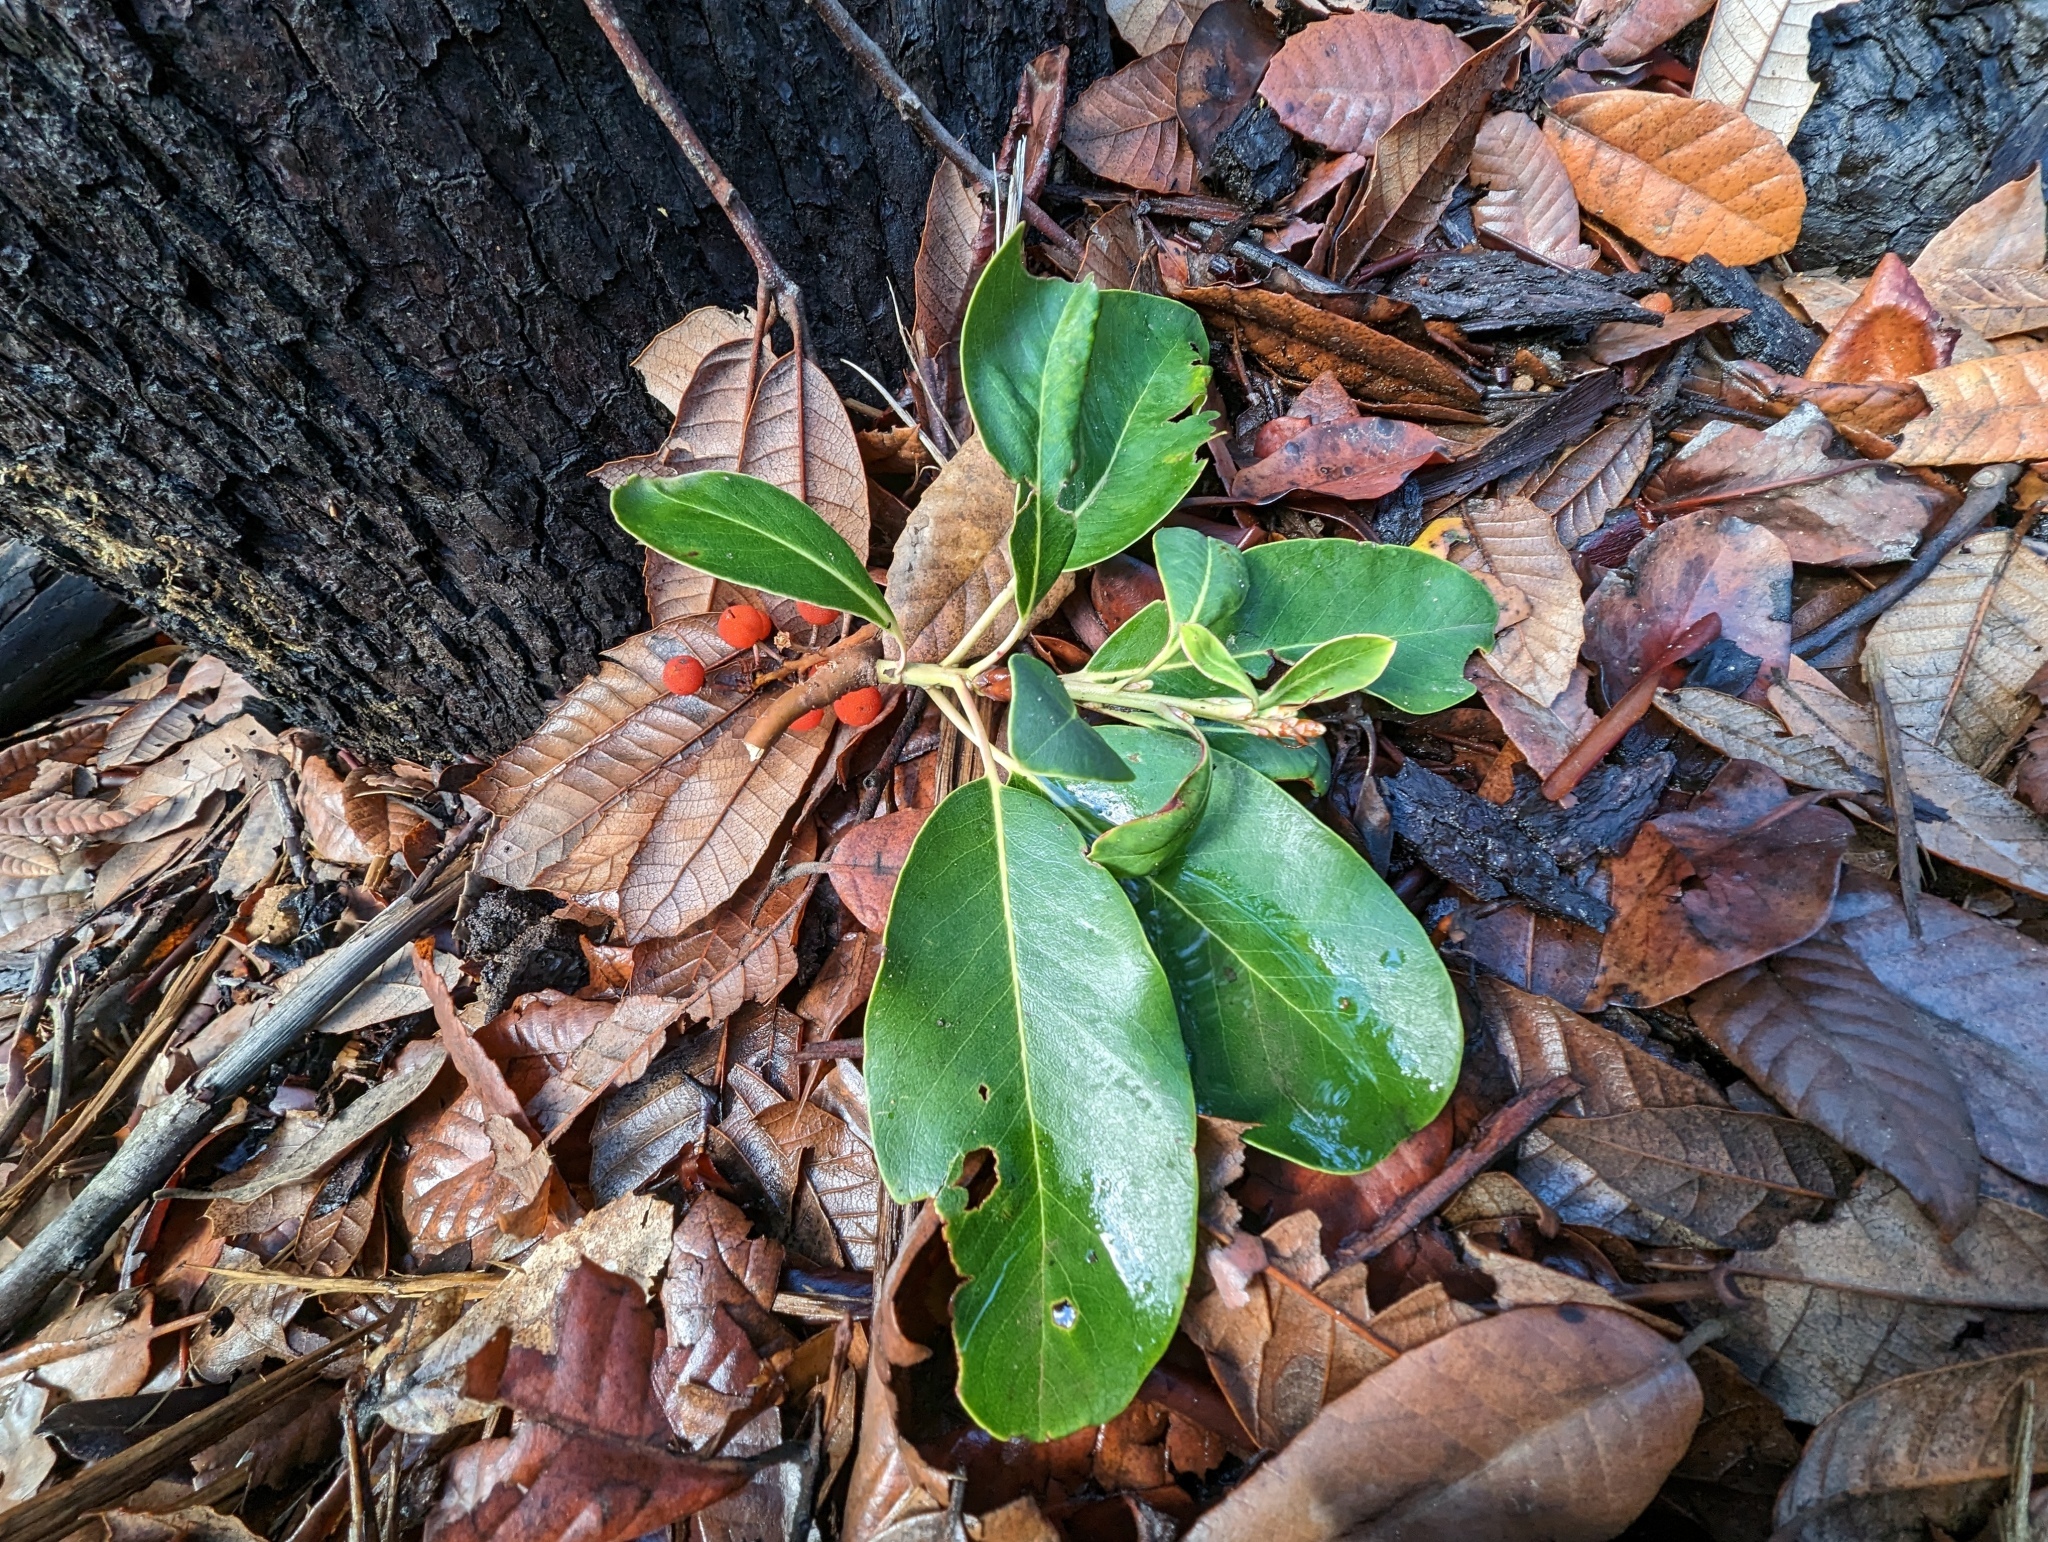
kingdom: Plantae
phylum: Tracheophyta
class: Magnoliopsida
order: Ericales
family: Ericaceae
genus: Arbutus
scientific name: Arbutus menziesii
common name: Pacific madrone
